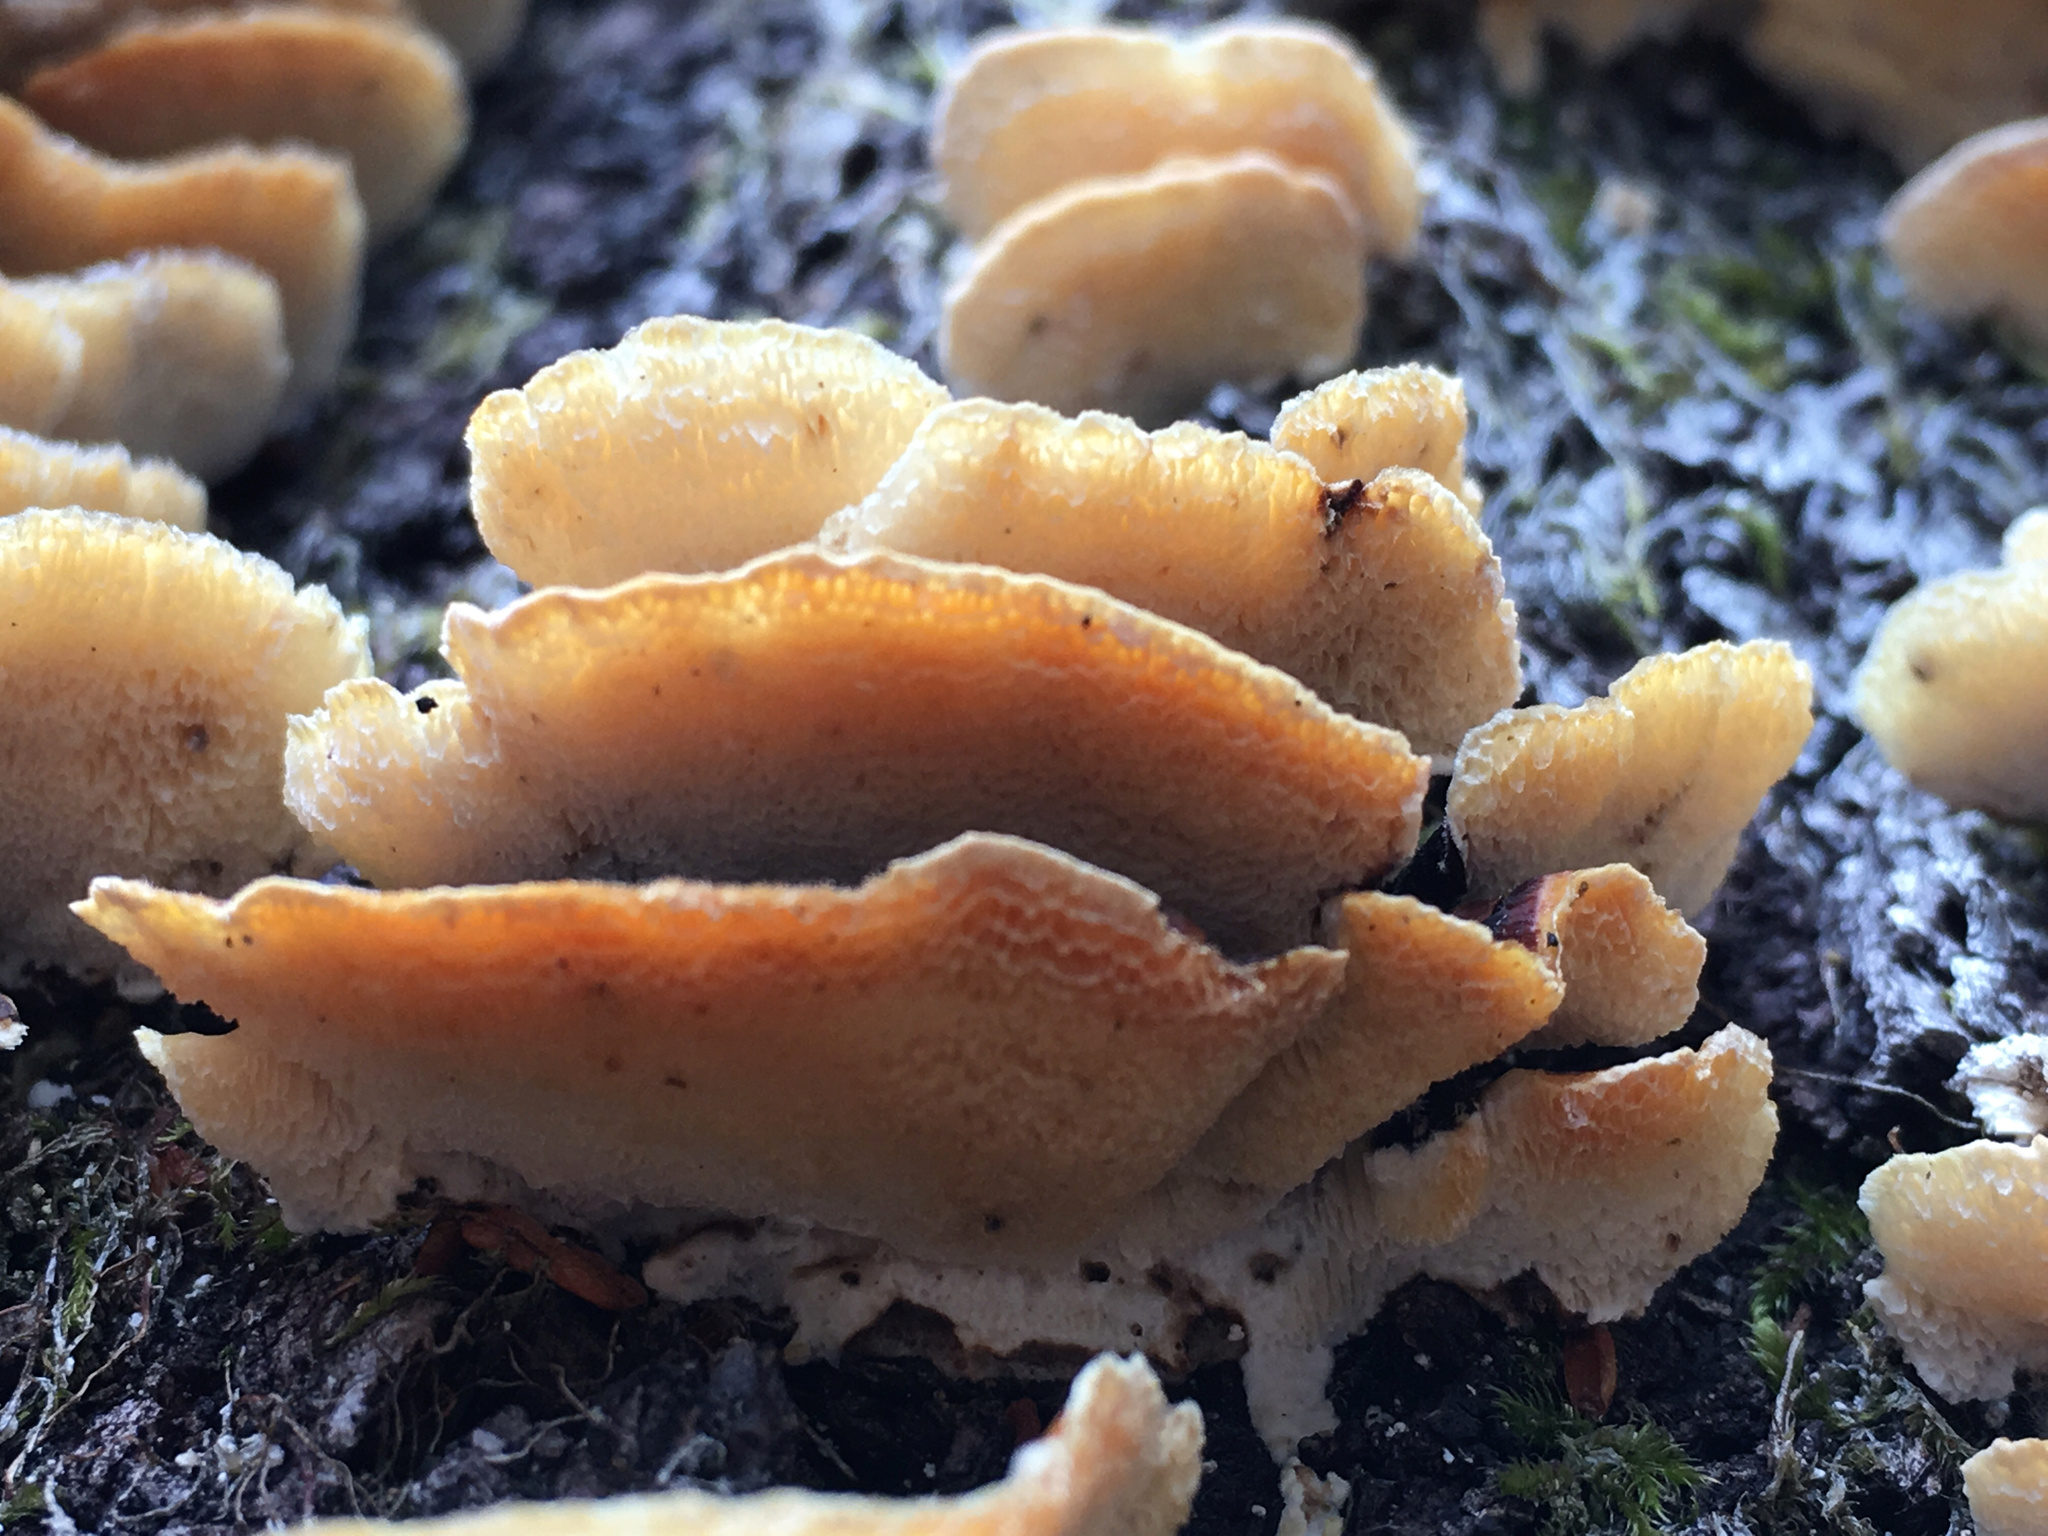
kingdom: Fungi
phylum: Basidiomycota
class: Agaricomycetes
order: Polyporales
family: Polyporaceae
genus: Trametes
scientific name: Trametes versicolor
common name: Turkeytail
